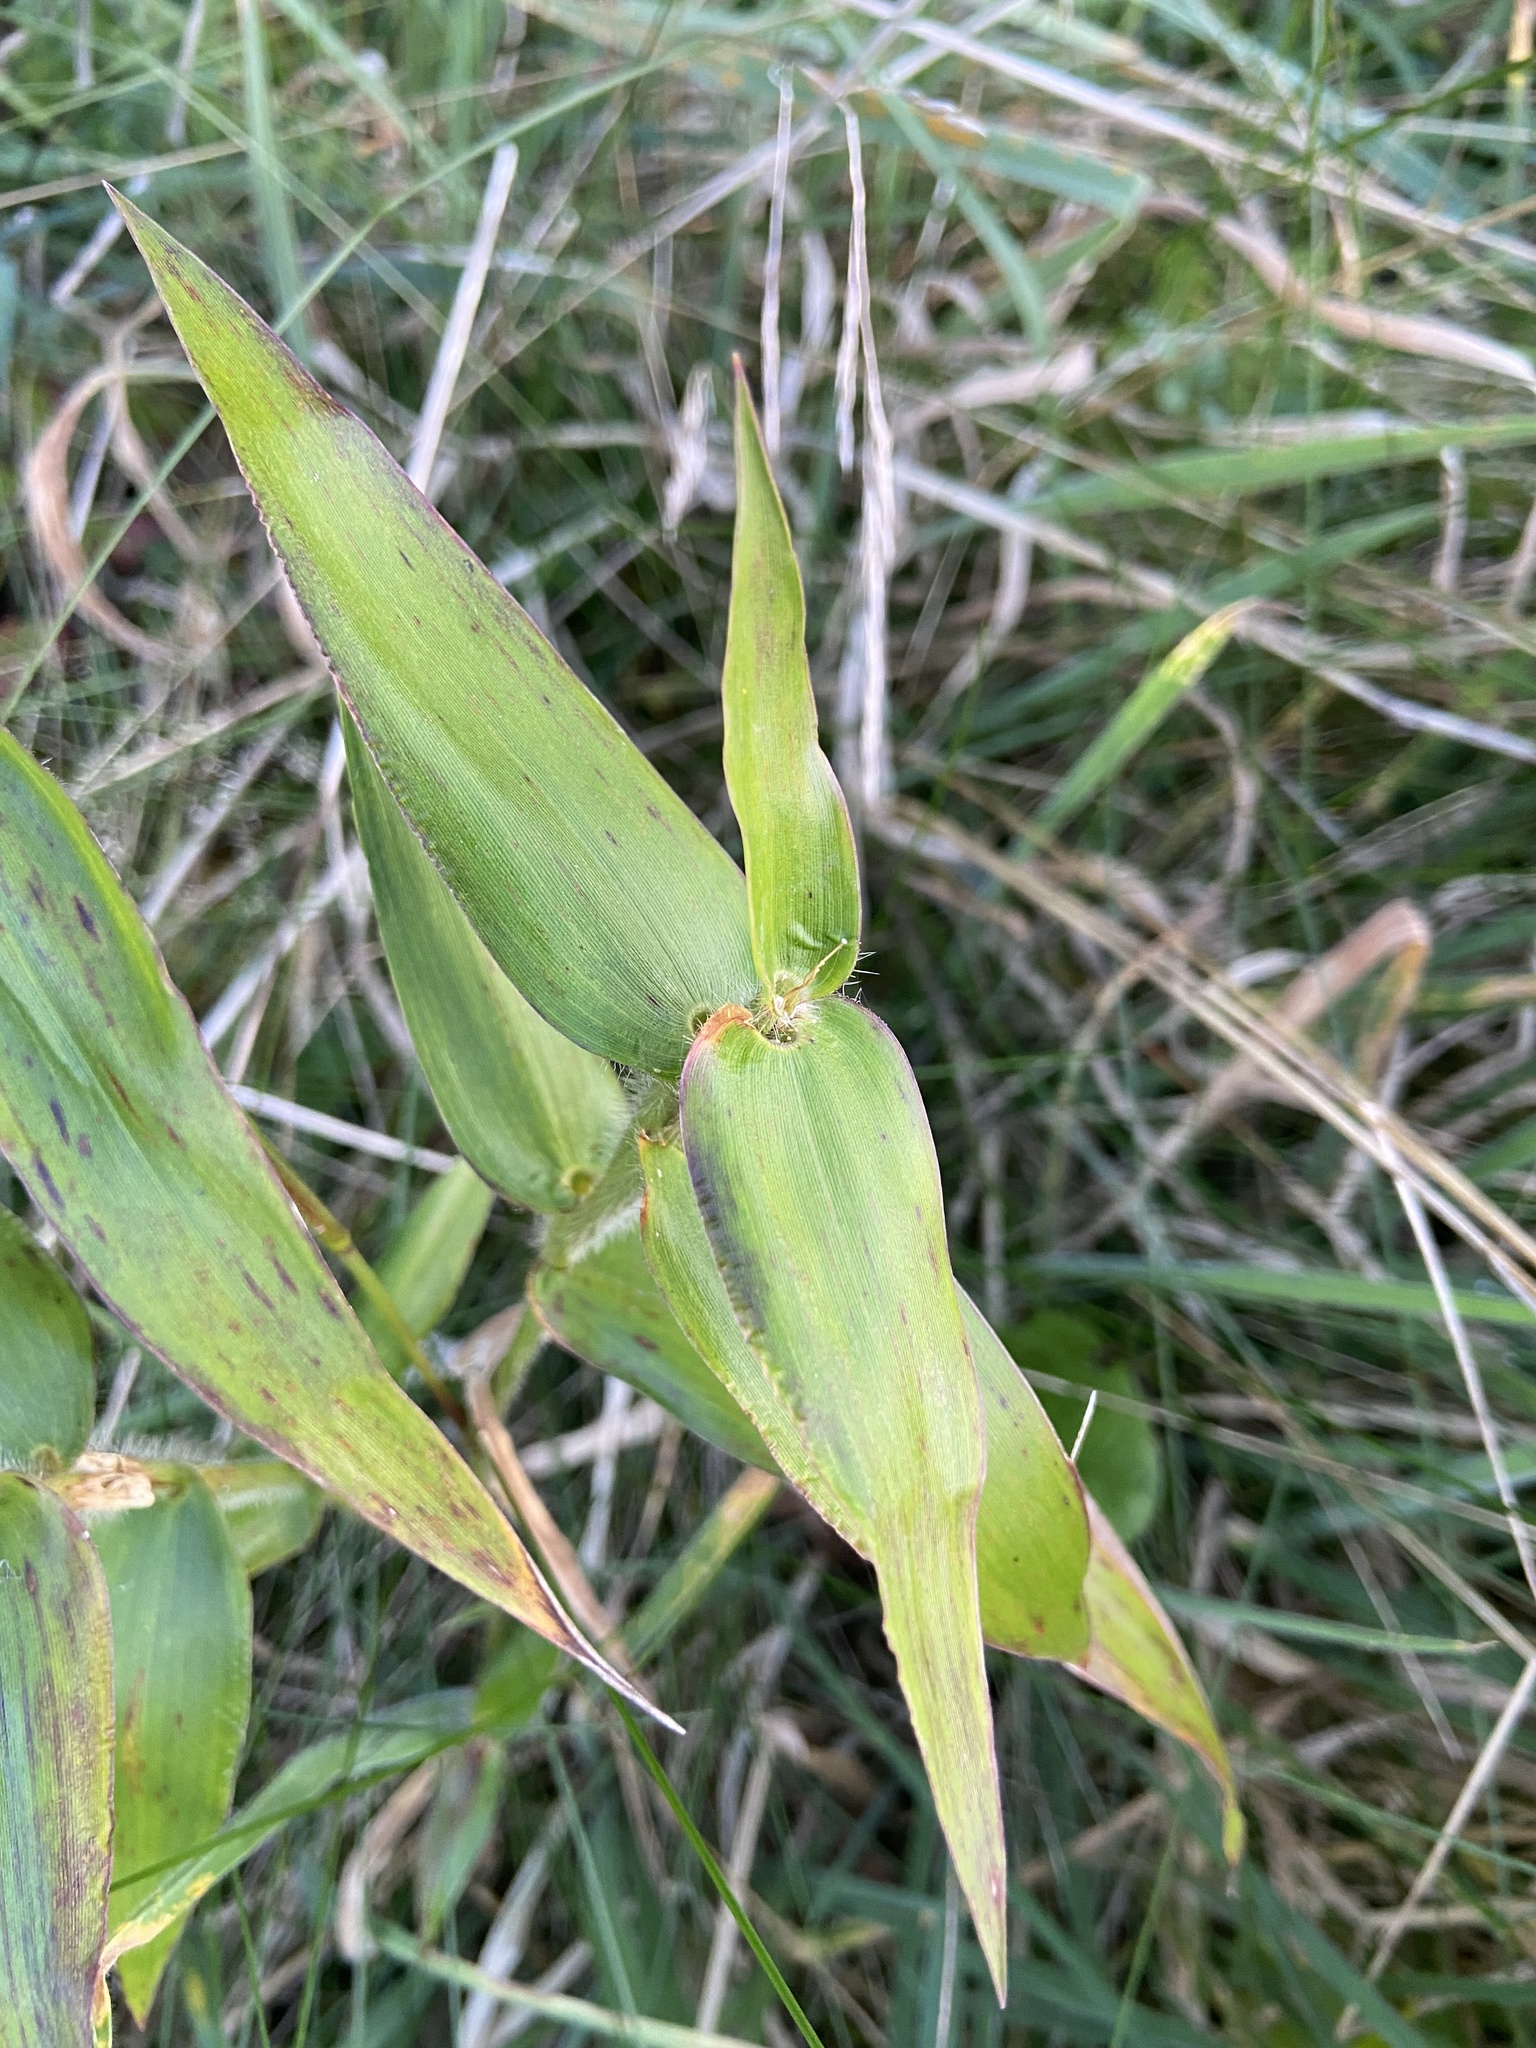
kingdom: Plantae
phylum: Tracheophyta
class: Liliopsida
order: Poales
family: Poaceae
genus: Dichanthelium
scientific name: Dichanthelium clandestinum
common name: Deer-tongue grass
